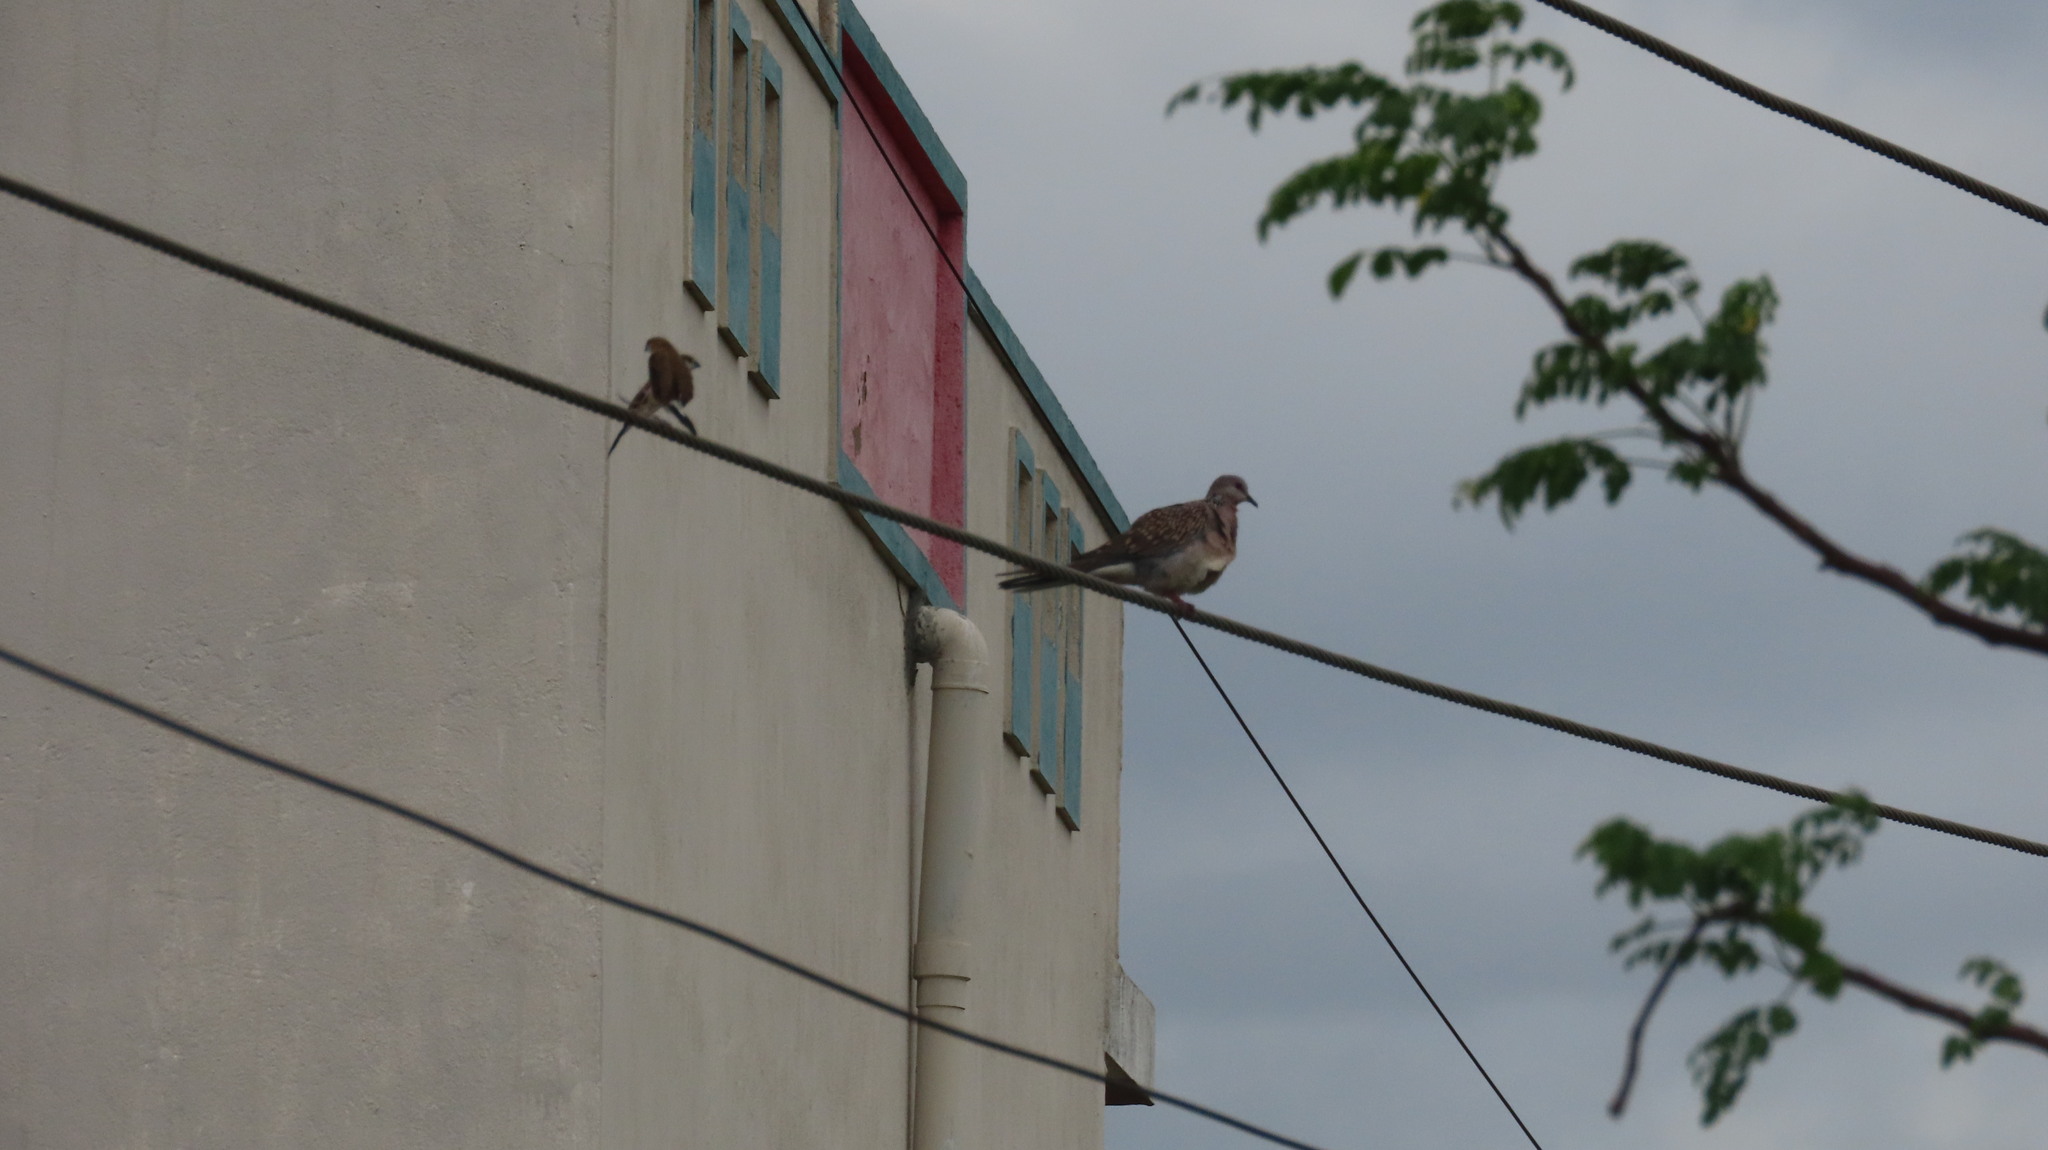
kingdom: Animalia
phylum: Chordata
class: Aves
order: Columbiformes
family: Columbidae
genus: Spilopelia
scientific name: Spilopelia chinensis
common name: Spotted dove
